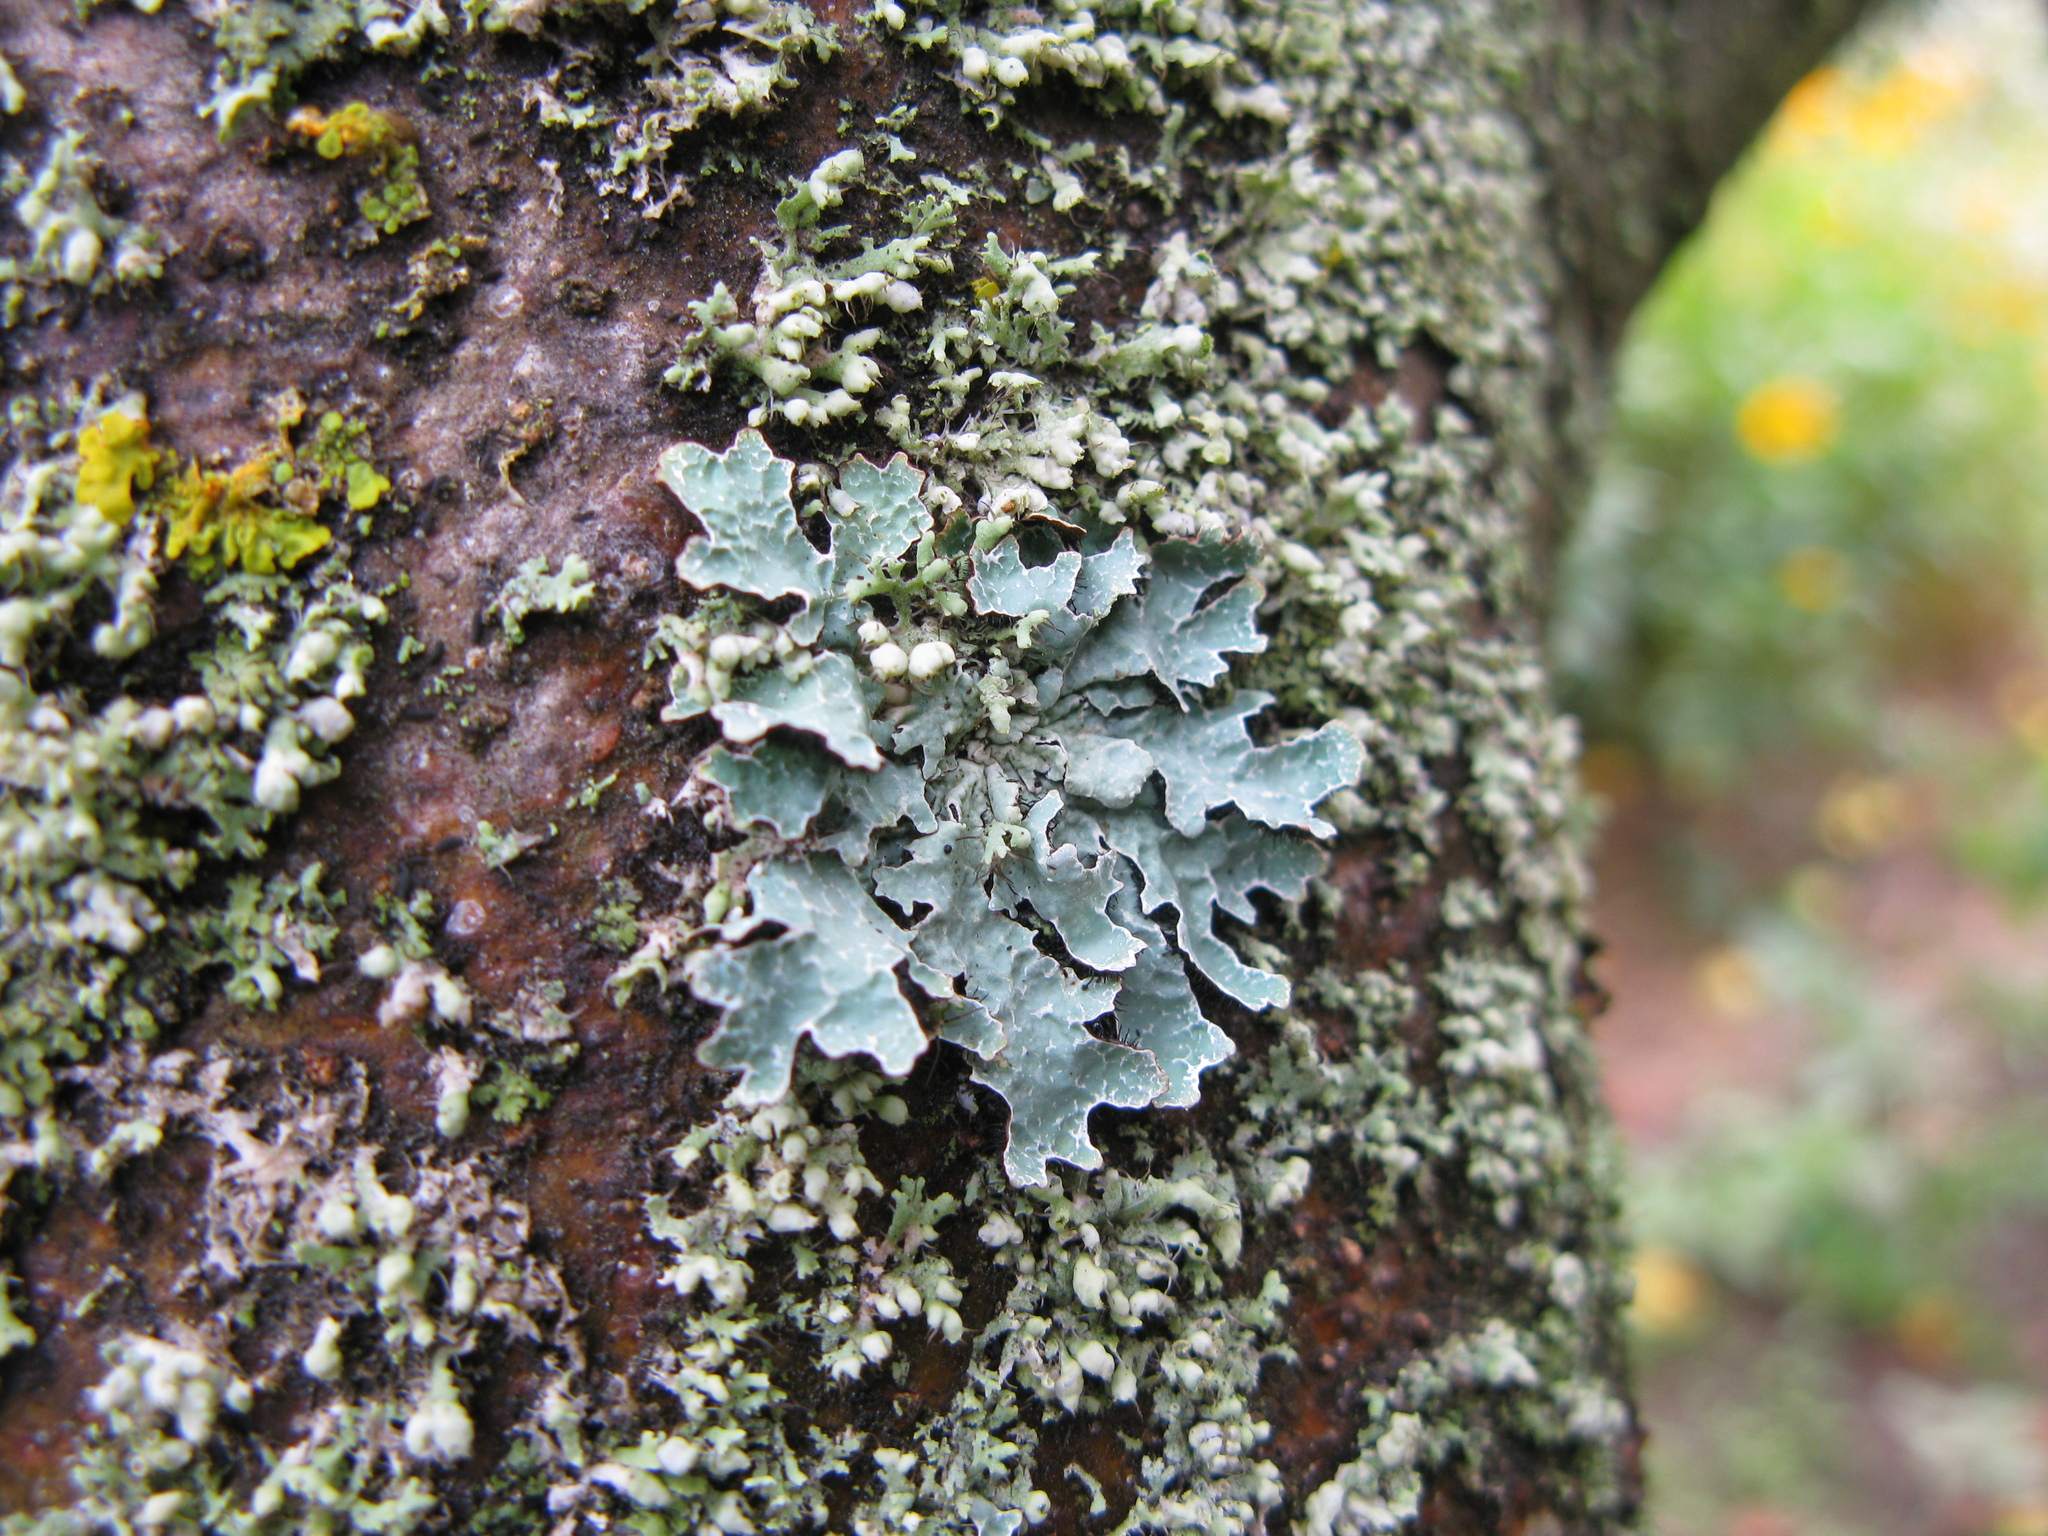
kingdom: Fungi
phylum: Ascomycota
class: Lecanoromycetes
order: Lecanorales
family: Parmeliaceae
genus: Parmelia
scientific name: Parmelia sulcata
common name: Netted shield lichen
